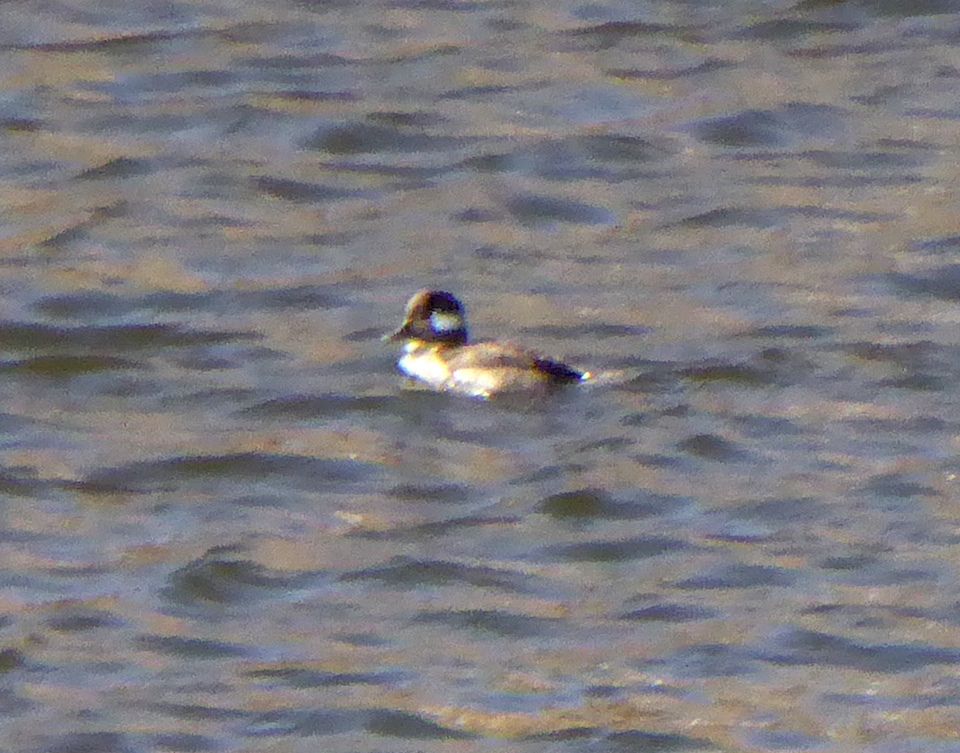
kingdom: Animalia
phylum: Chordata
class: Aves
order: Anseriformes
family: Anatidae
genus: Bucephala
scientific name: Bucephala albeola
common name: Bufflehead
